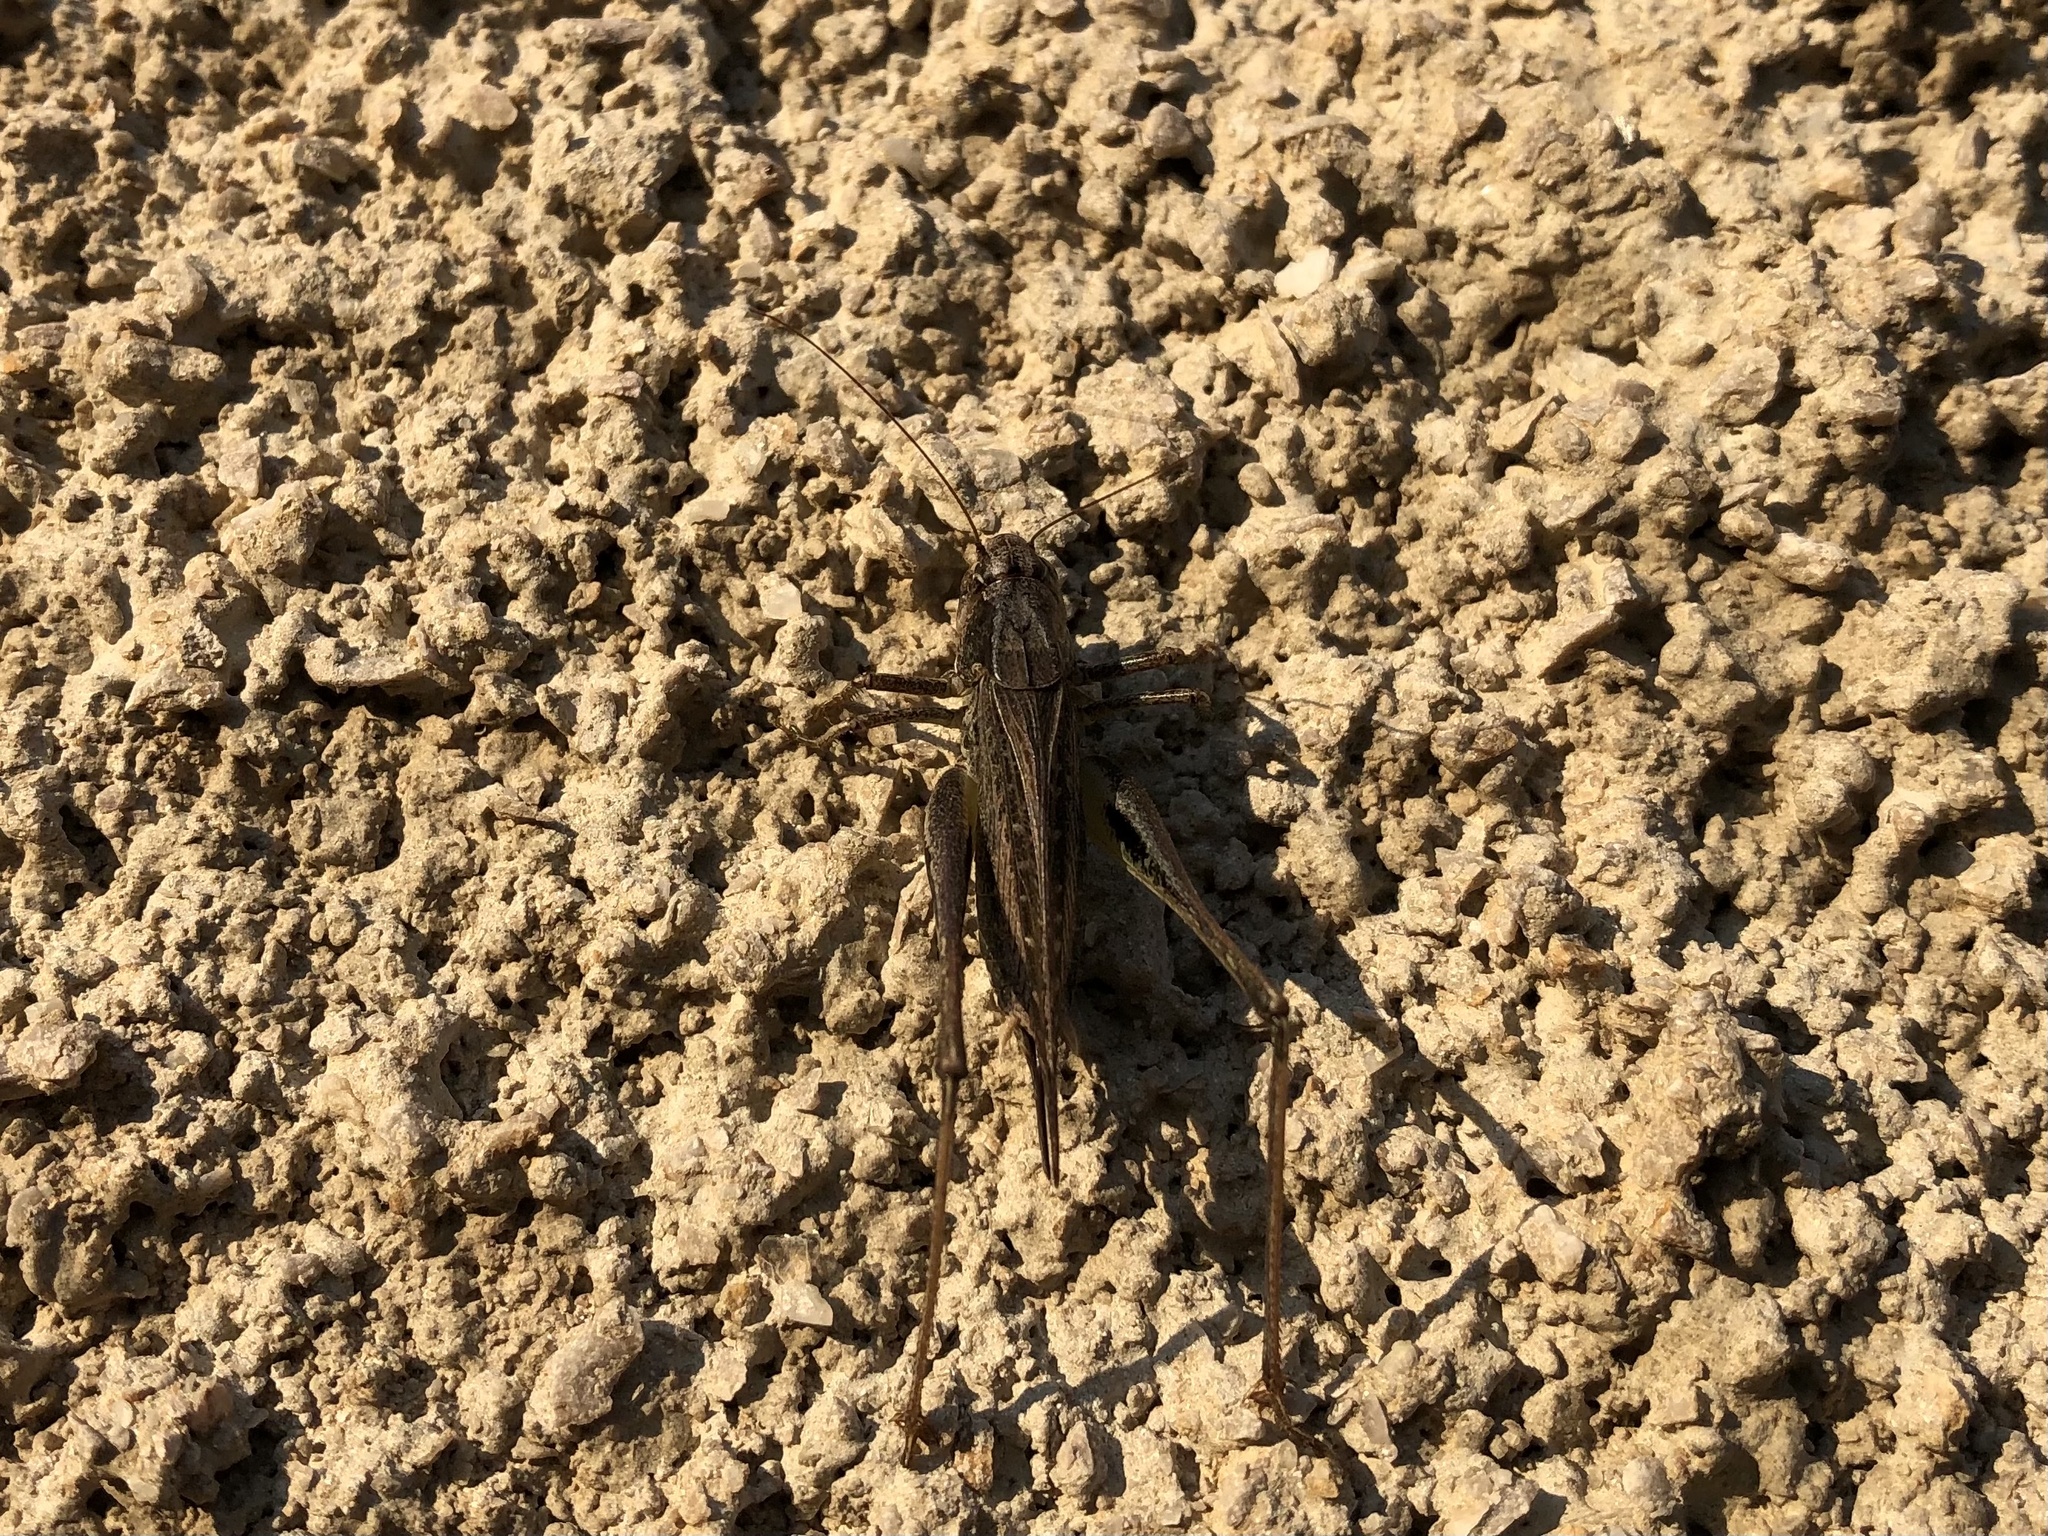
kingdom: Animalia
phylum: Arthropoda
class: Insecta
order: Orthoptera
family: Tettigoniidae
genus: Platycleis
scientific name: Platycleis albopunctata
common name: Grey bush-cricket
